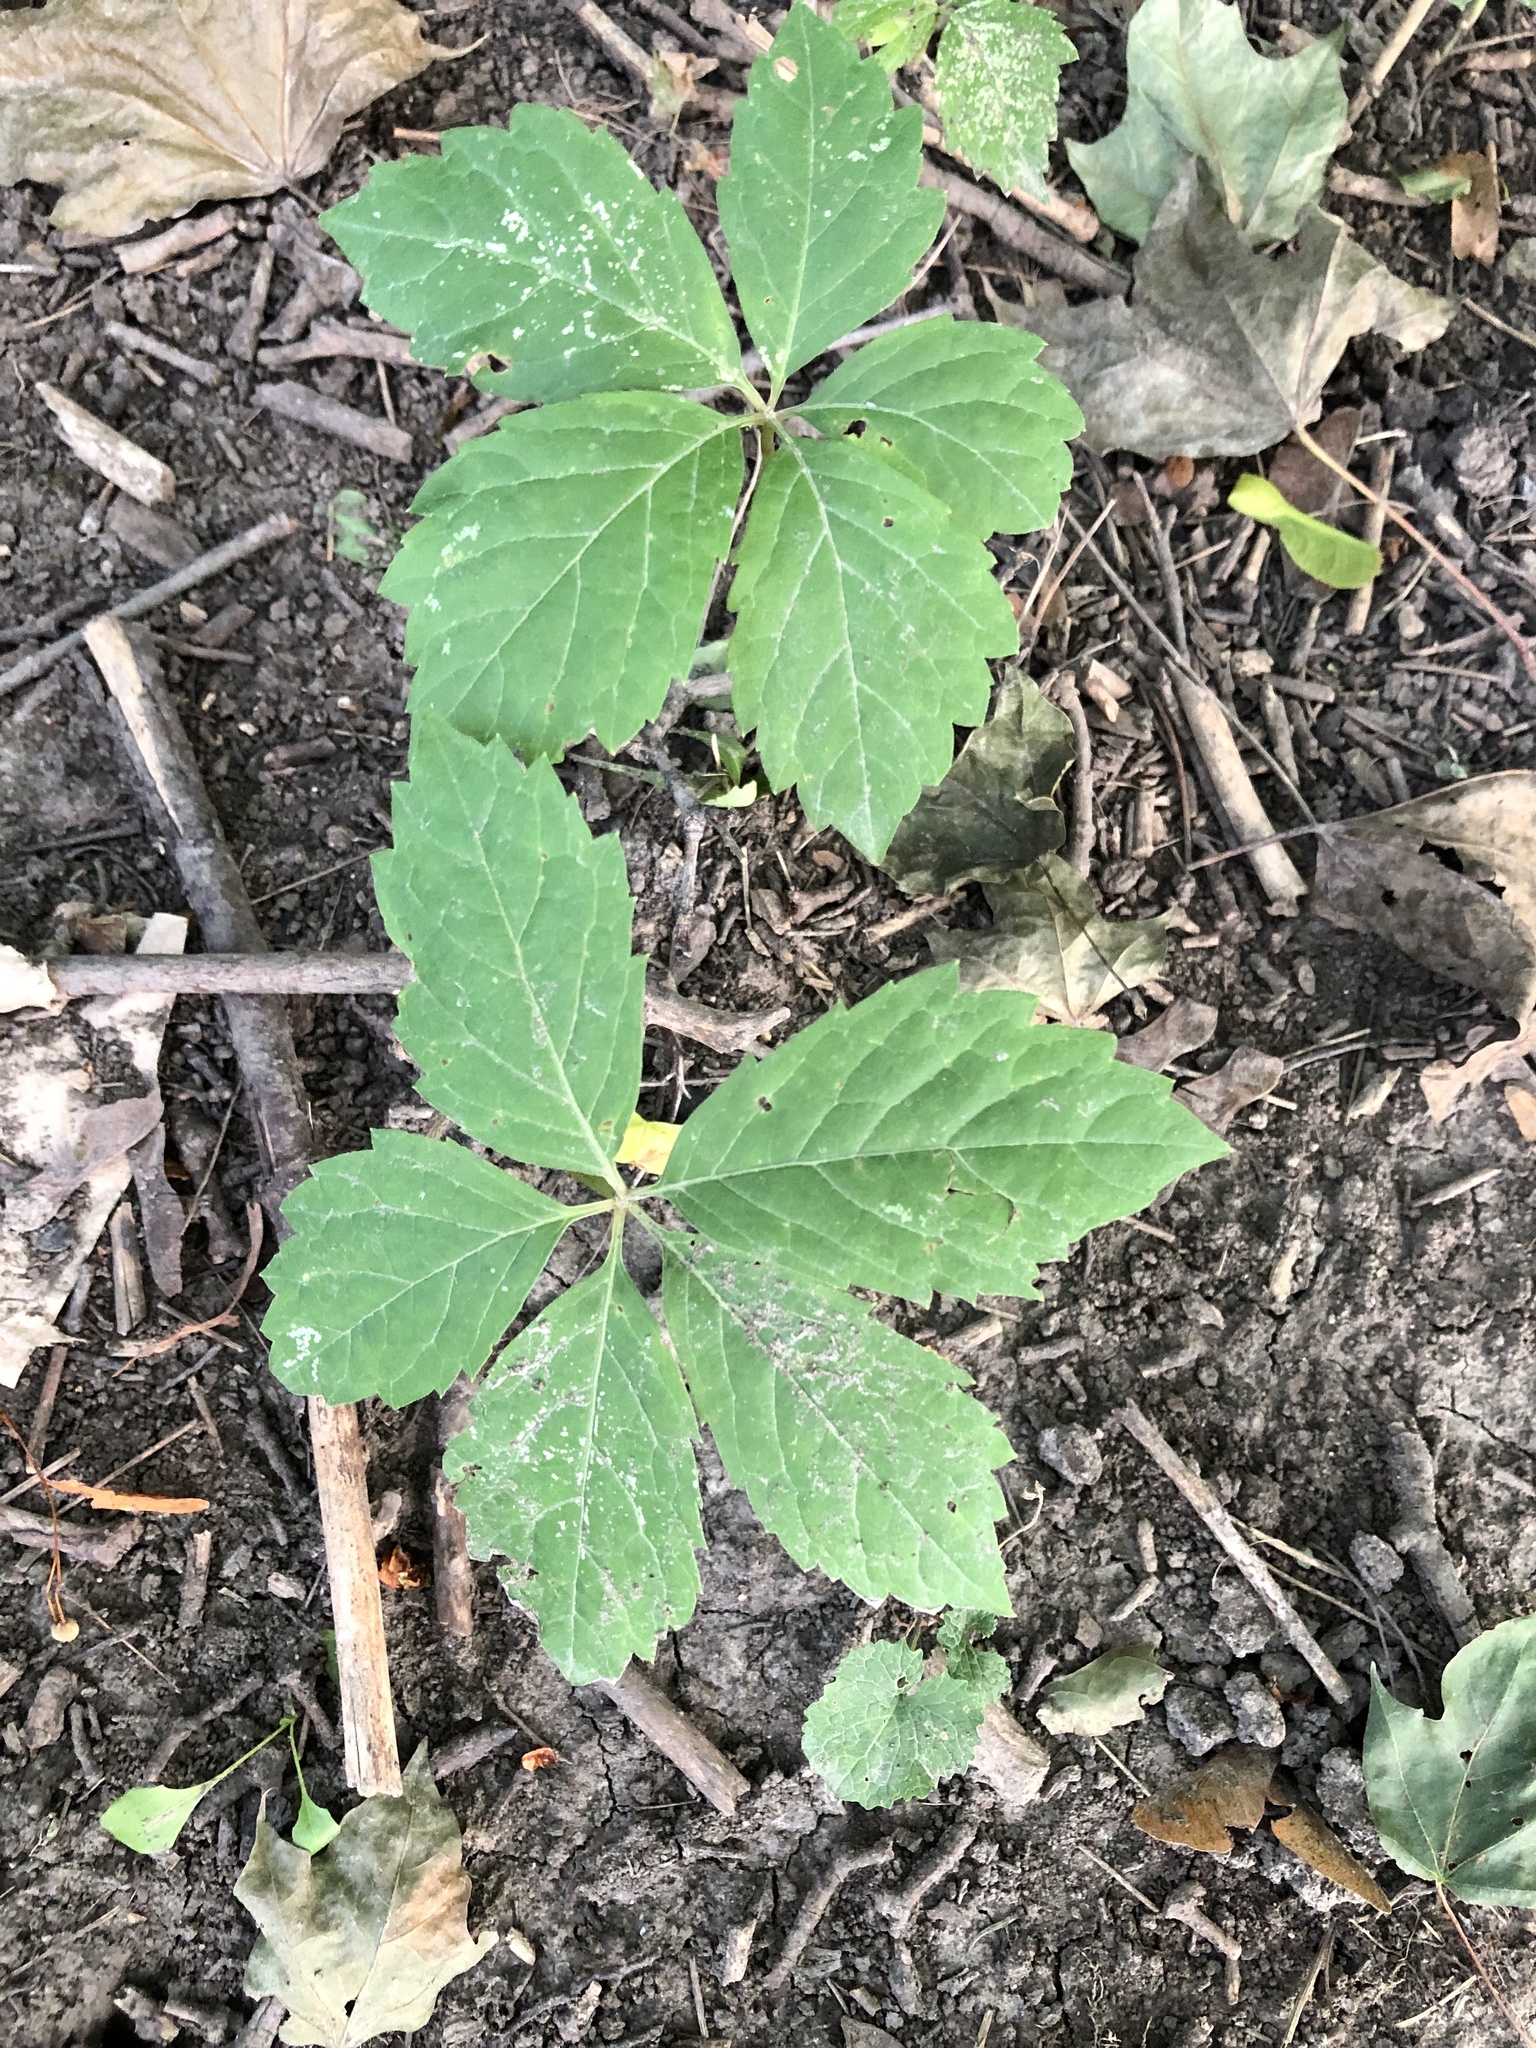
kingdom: Plantae
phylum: Tracheophyta
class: Magnoliopsida
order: Vitales
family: Vitaceae
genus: Parthenocissus
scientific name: Parthenocissus quinquefolia
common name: Virginia-creeper
